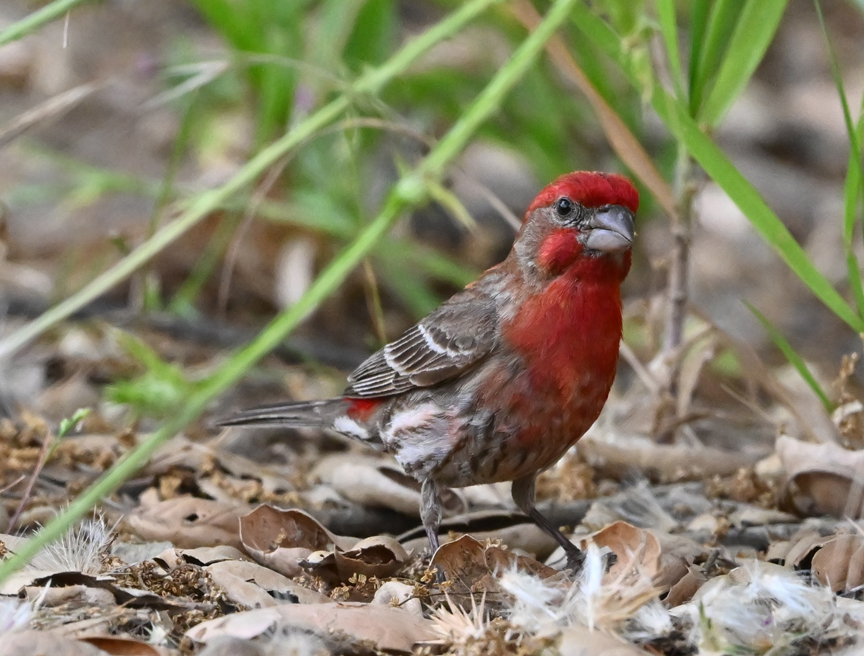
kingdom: Animalia
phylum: Chordata
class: Aves
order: Passeriformes
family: Fringillidae
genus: Haemorhous
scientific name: Haemorhous mexicanus
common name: House finch
